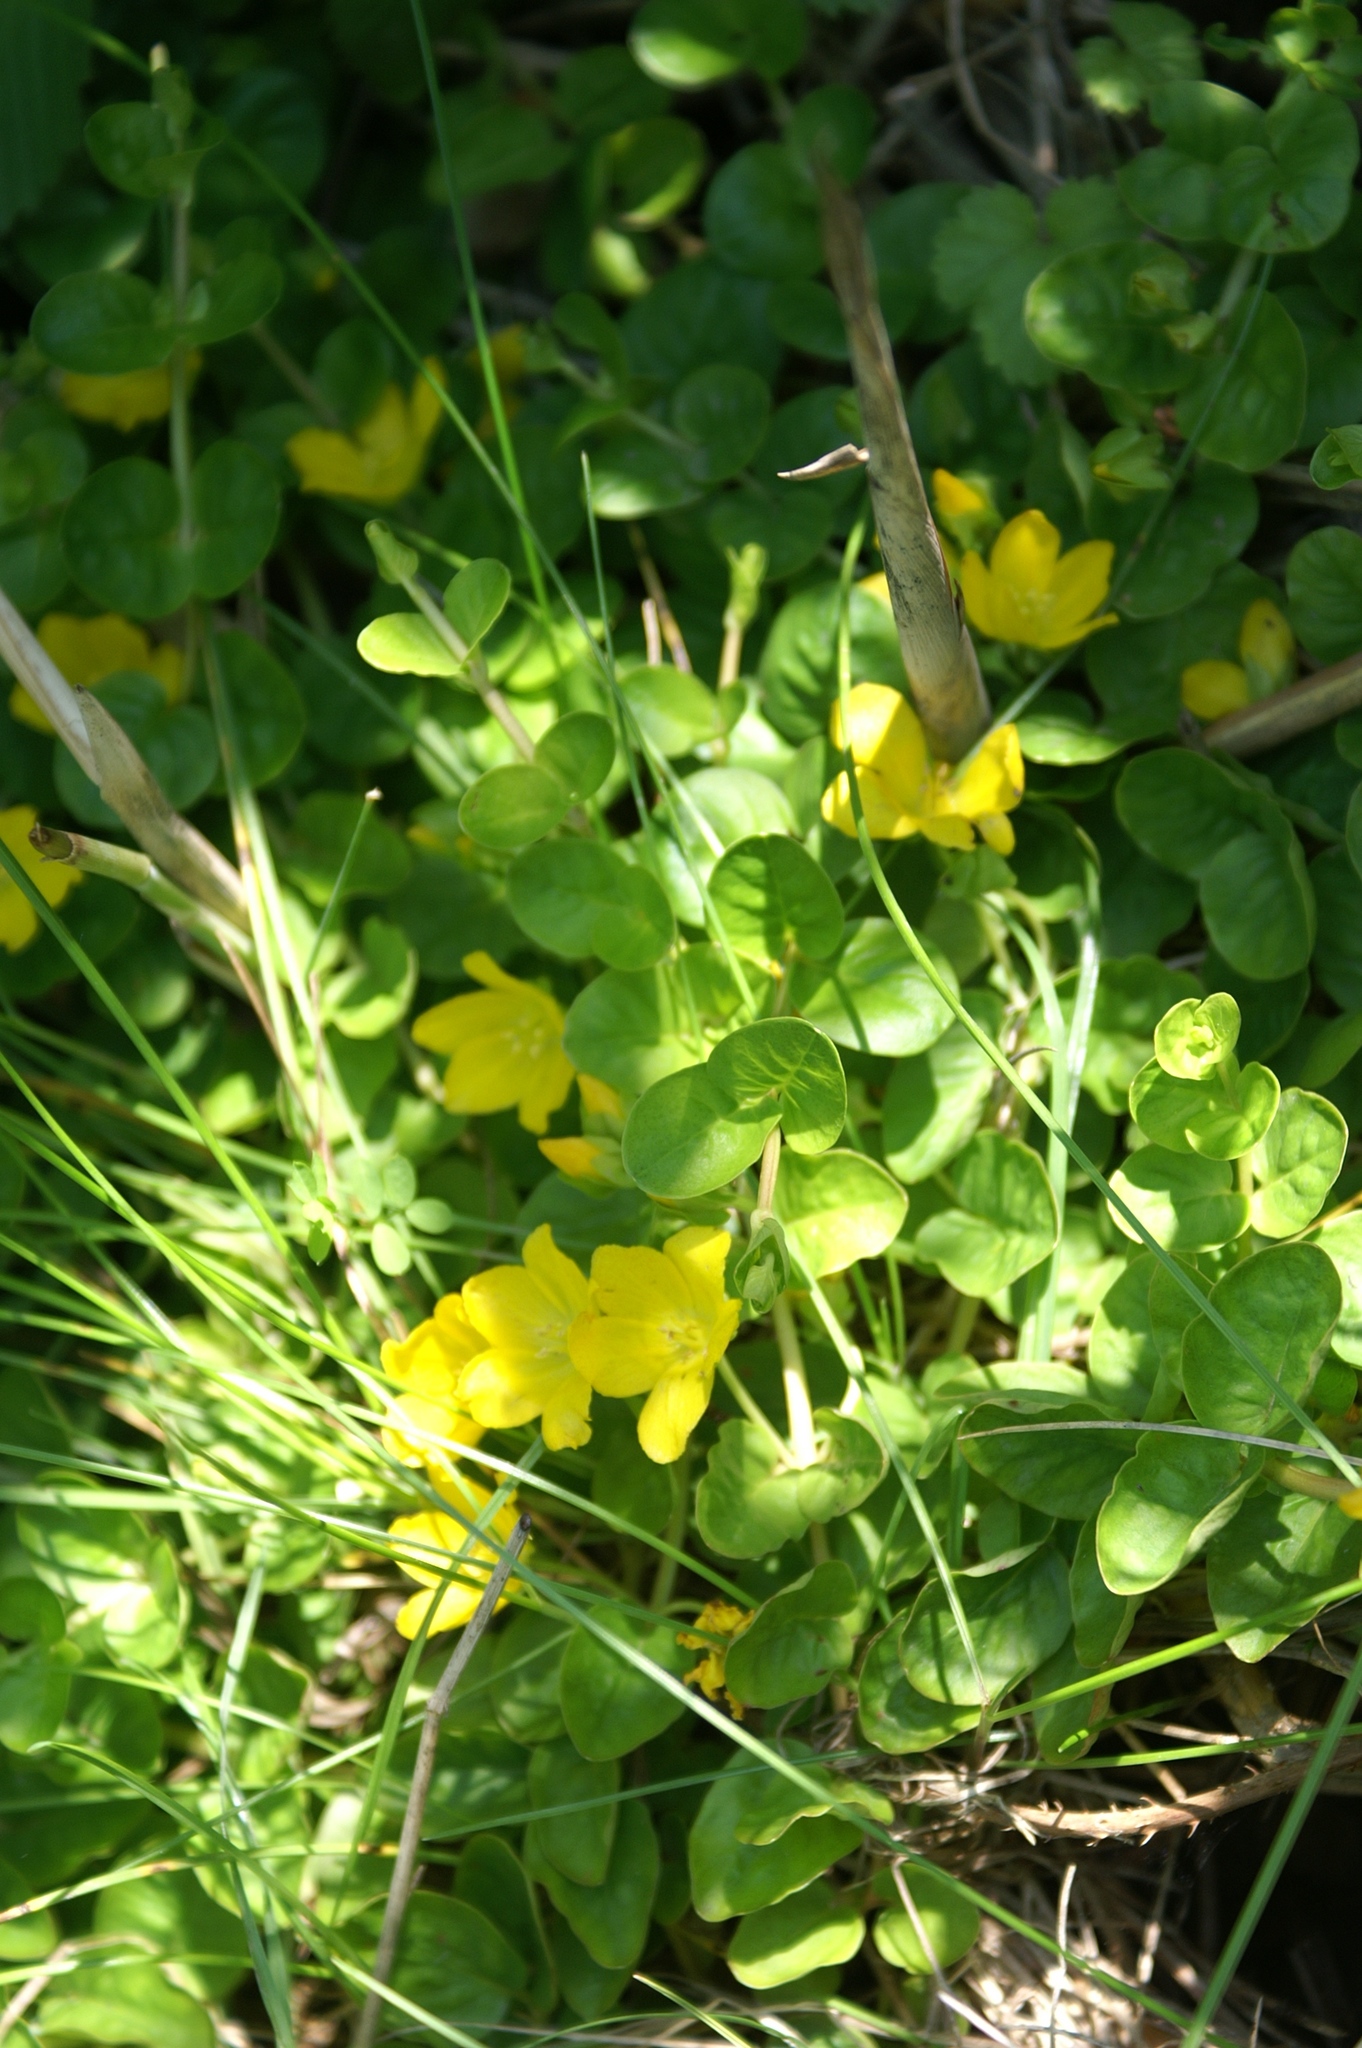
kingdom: Plantae
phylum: Tracheophyta
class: Magnoliopsida
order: Ericales
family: Primulaceae
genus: Lysimachia
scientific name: Lysimachia nummularia
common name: Moneywort
